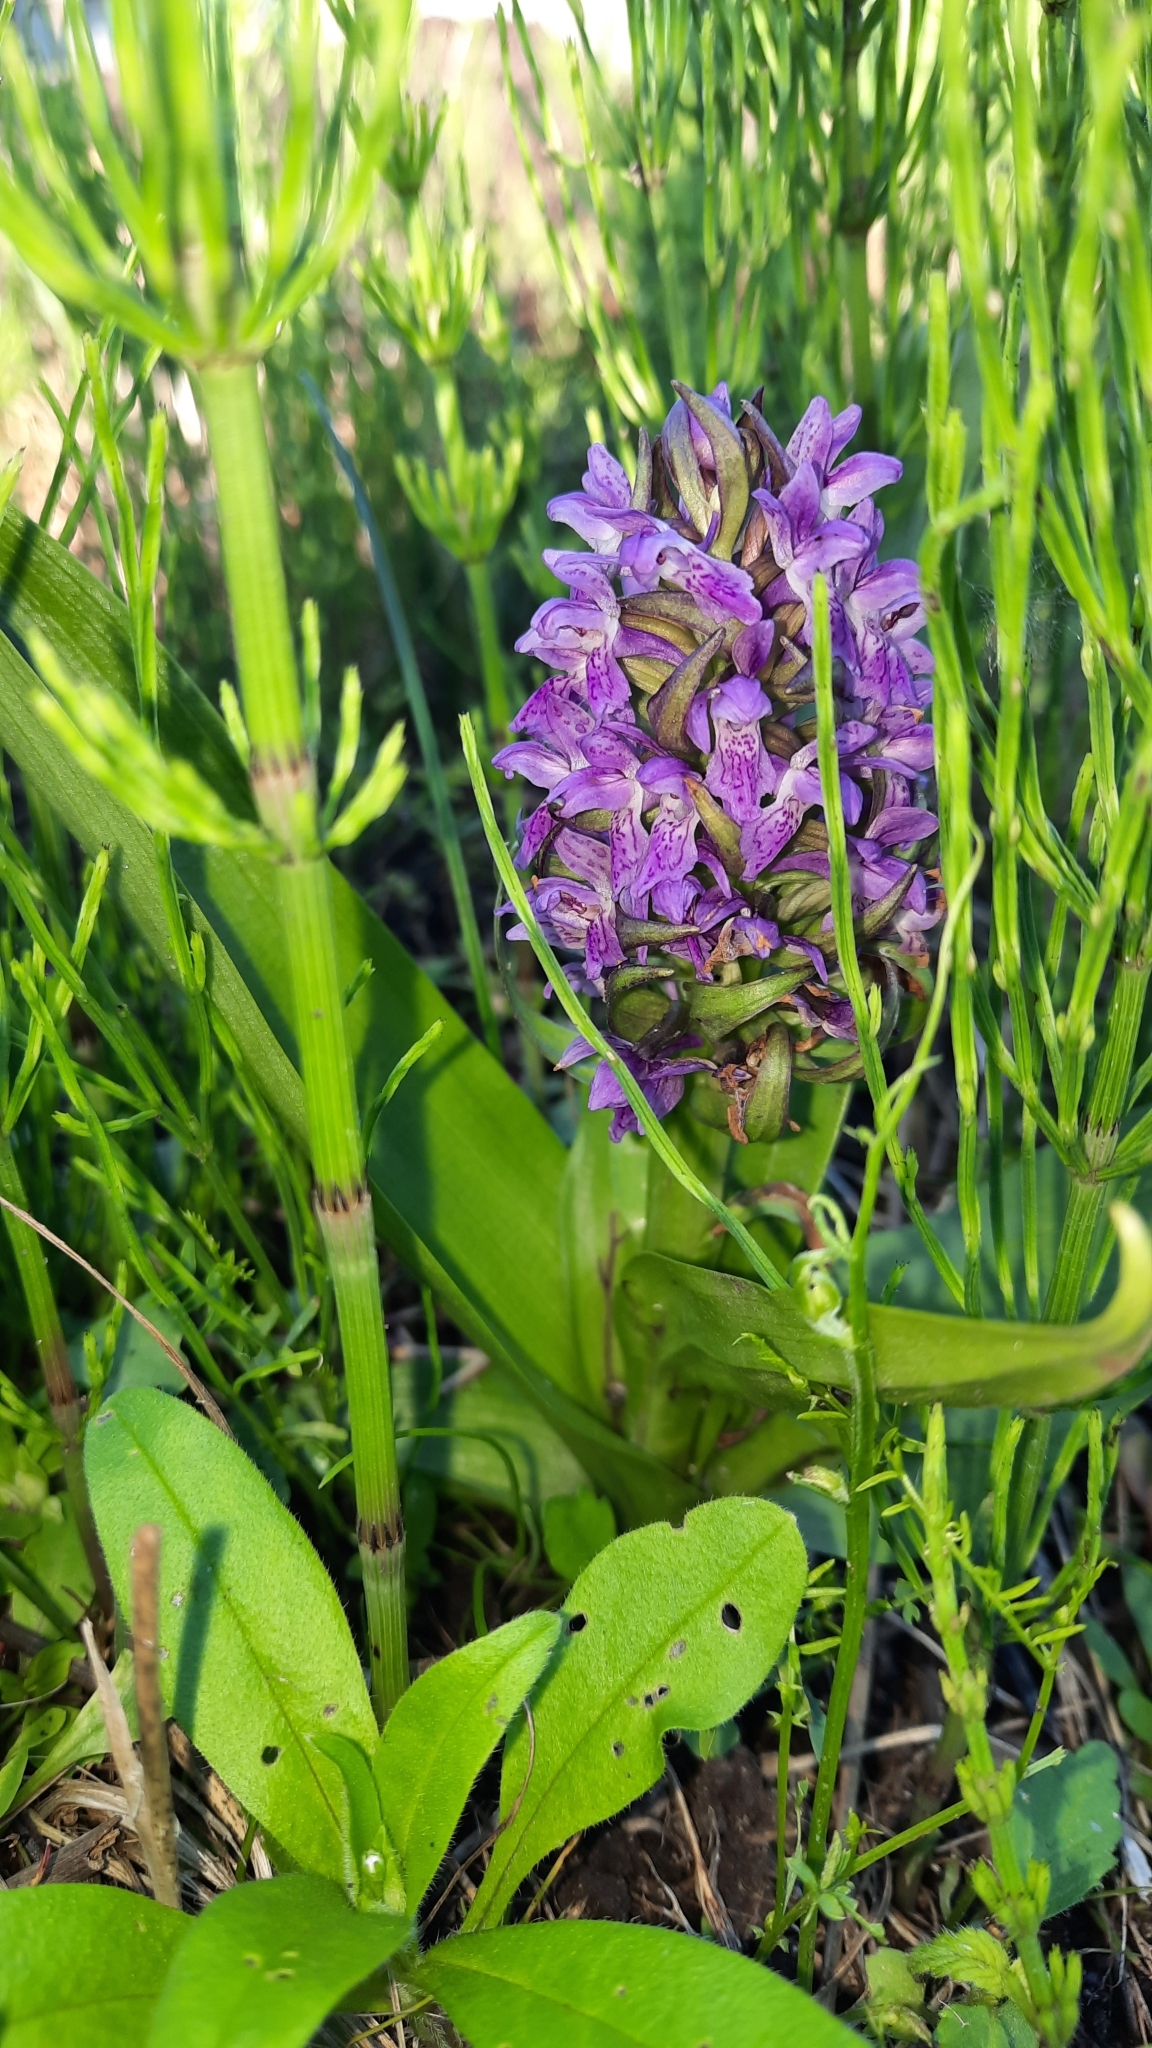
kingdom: Plantae
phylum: Tracheophyta
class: Liliopsida
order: Asparagales
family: Orchidaceae
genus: Dactylorhiza
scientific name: Dactylorhiza incarnata
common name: Early marsh-orchid
